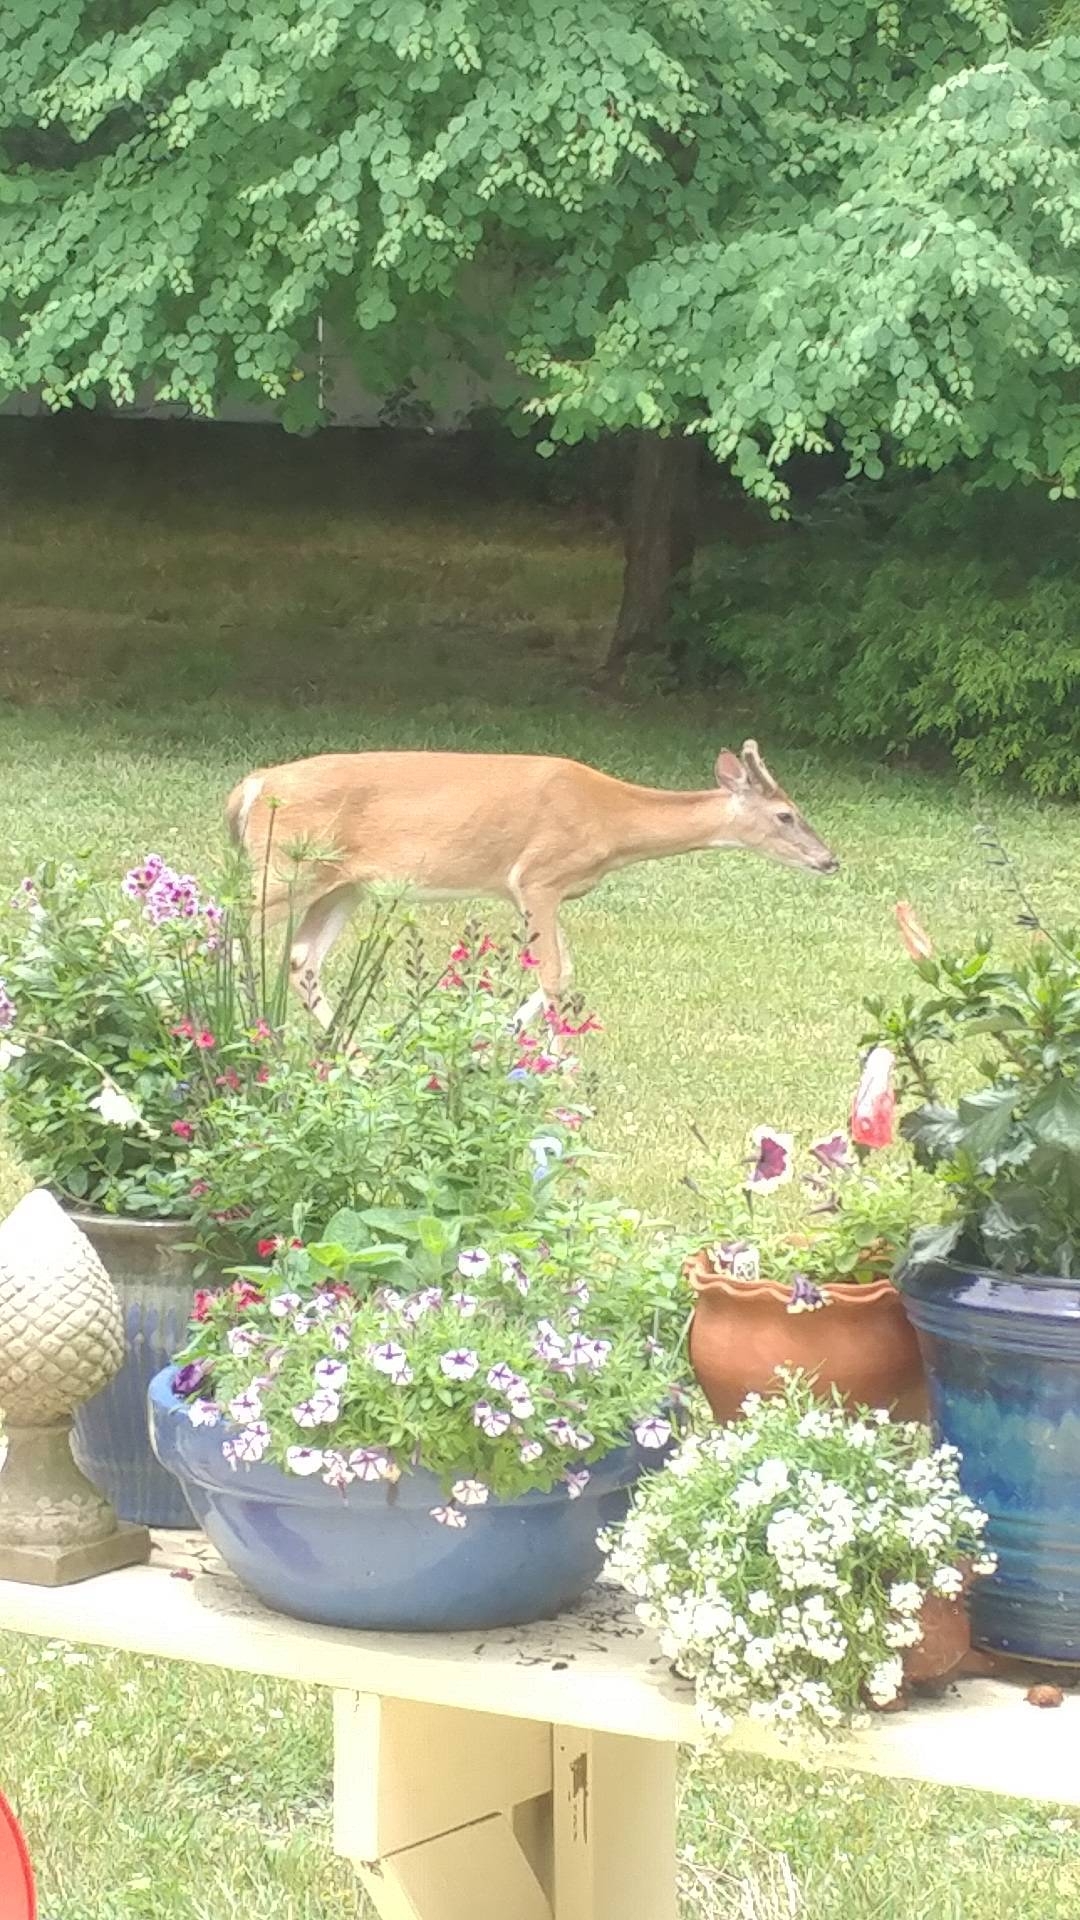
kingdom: Animalia
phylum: Chordata
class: Mammalia
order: Artiodactyla
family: Cervidae
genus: Odocoileus
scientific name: Odocoileus virginianus
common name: White-tailed deer
